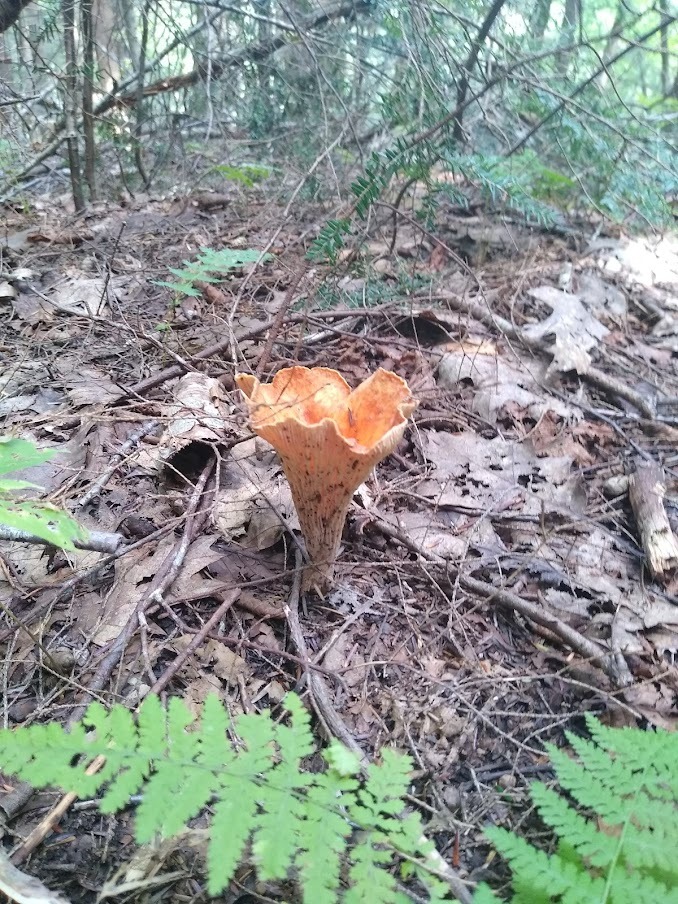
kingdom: Fungi
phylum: Basidiomycota
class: Agaricomycetes
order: Gomphales
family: Gomphaceae
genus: Turbinellus
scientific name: Turbinellus floccosus
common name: Scaly chanterelle
